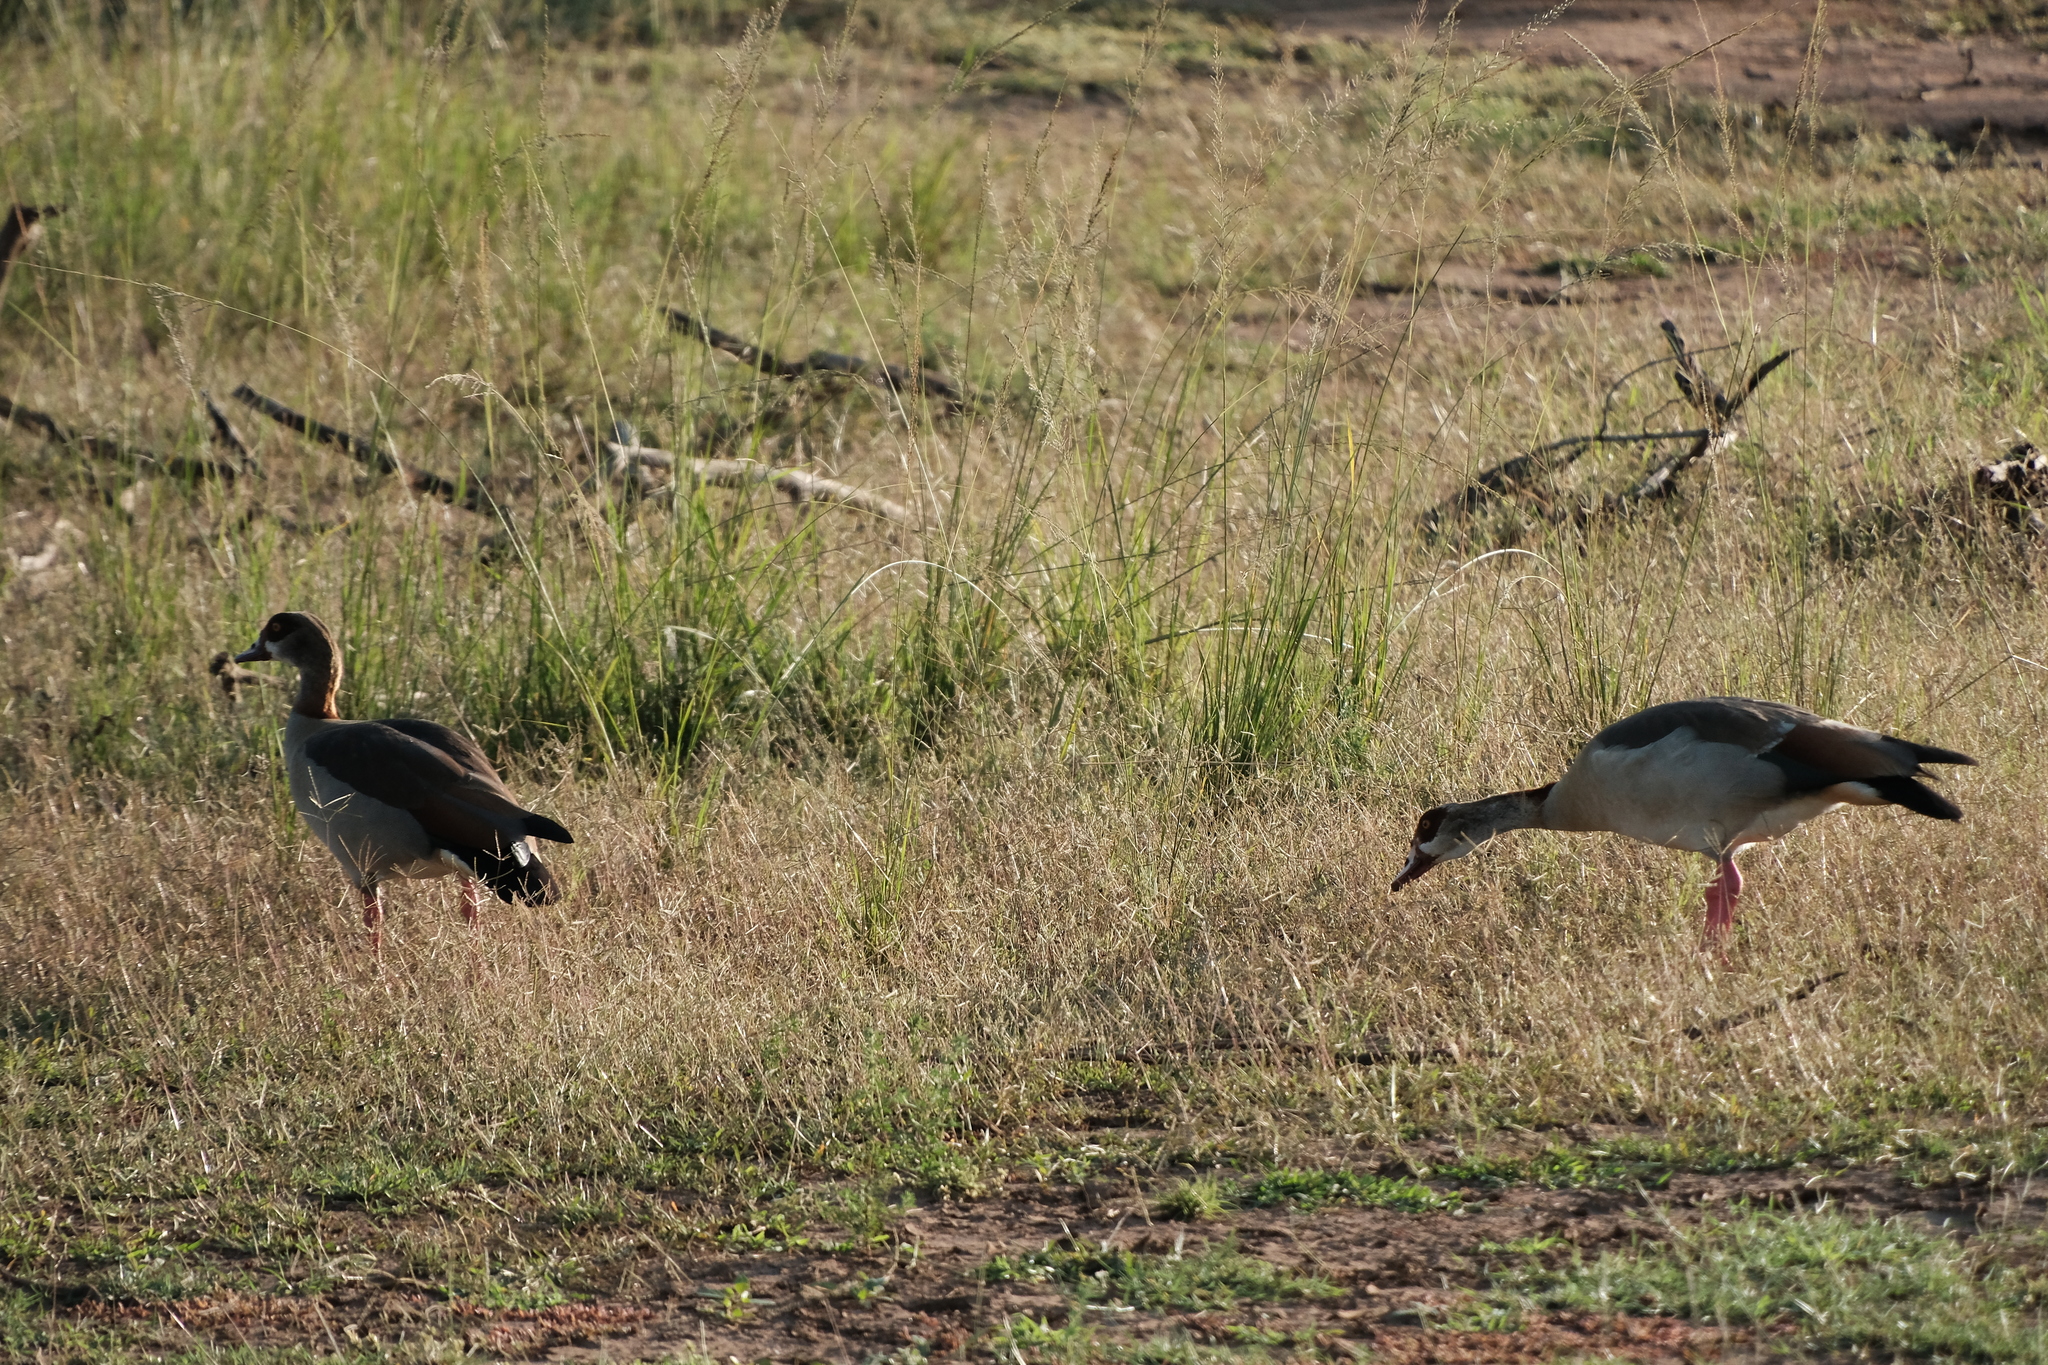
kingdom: Animalia
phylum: Chordata
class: Aves
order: Anseriformes
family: Anatidae
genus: Alopochen
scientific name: Alopochen aegyptiaca
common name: Egyptian goose
